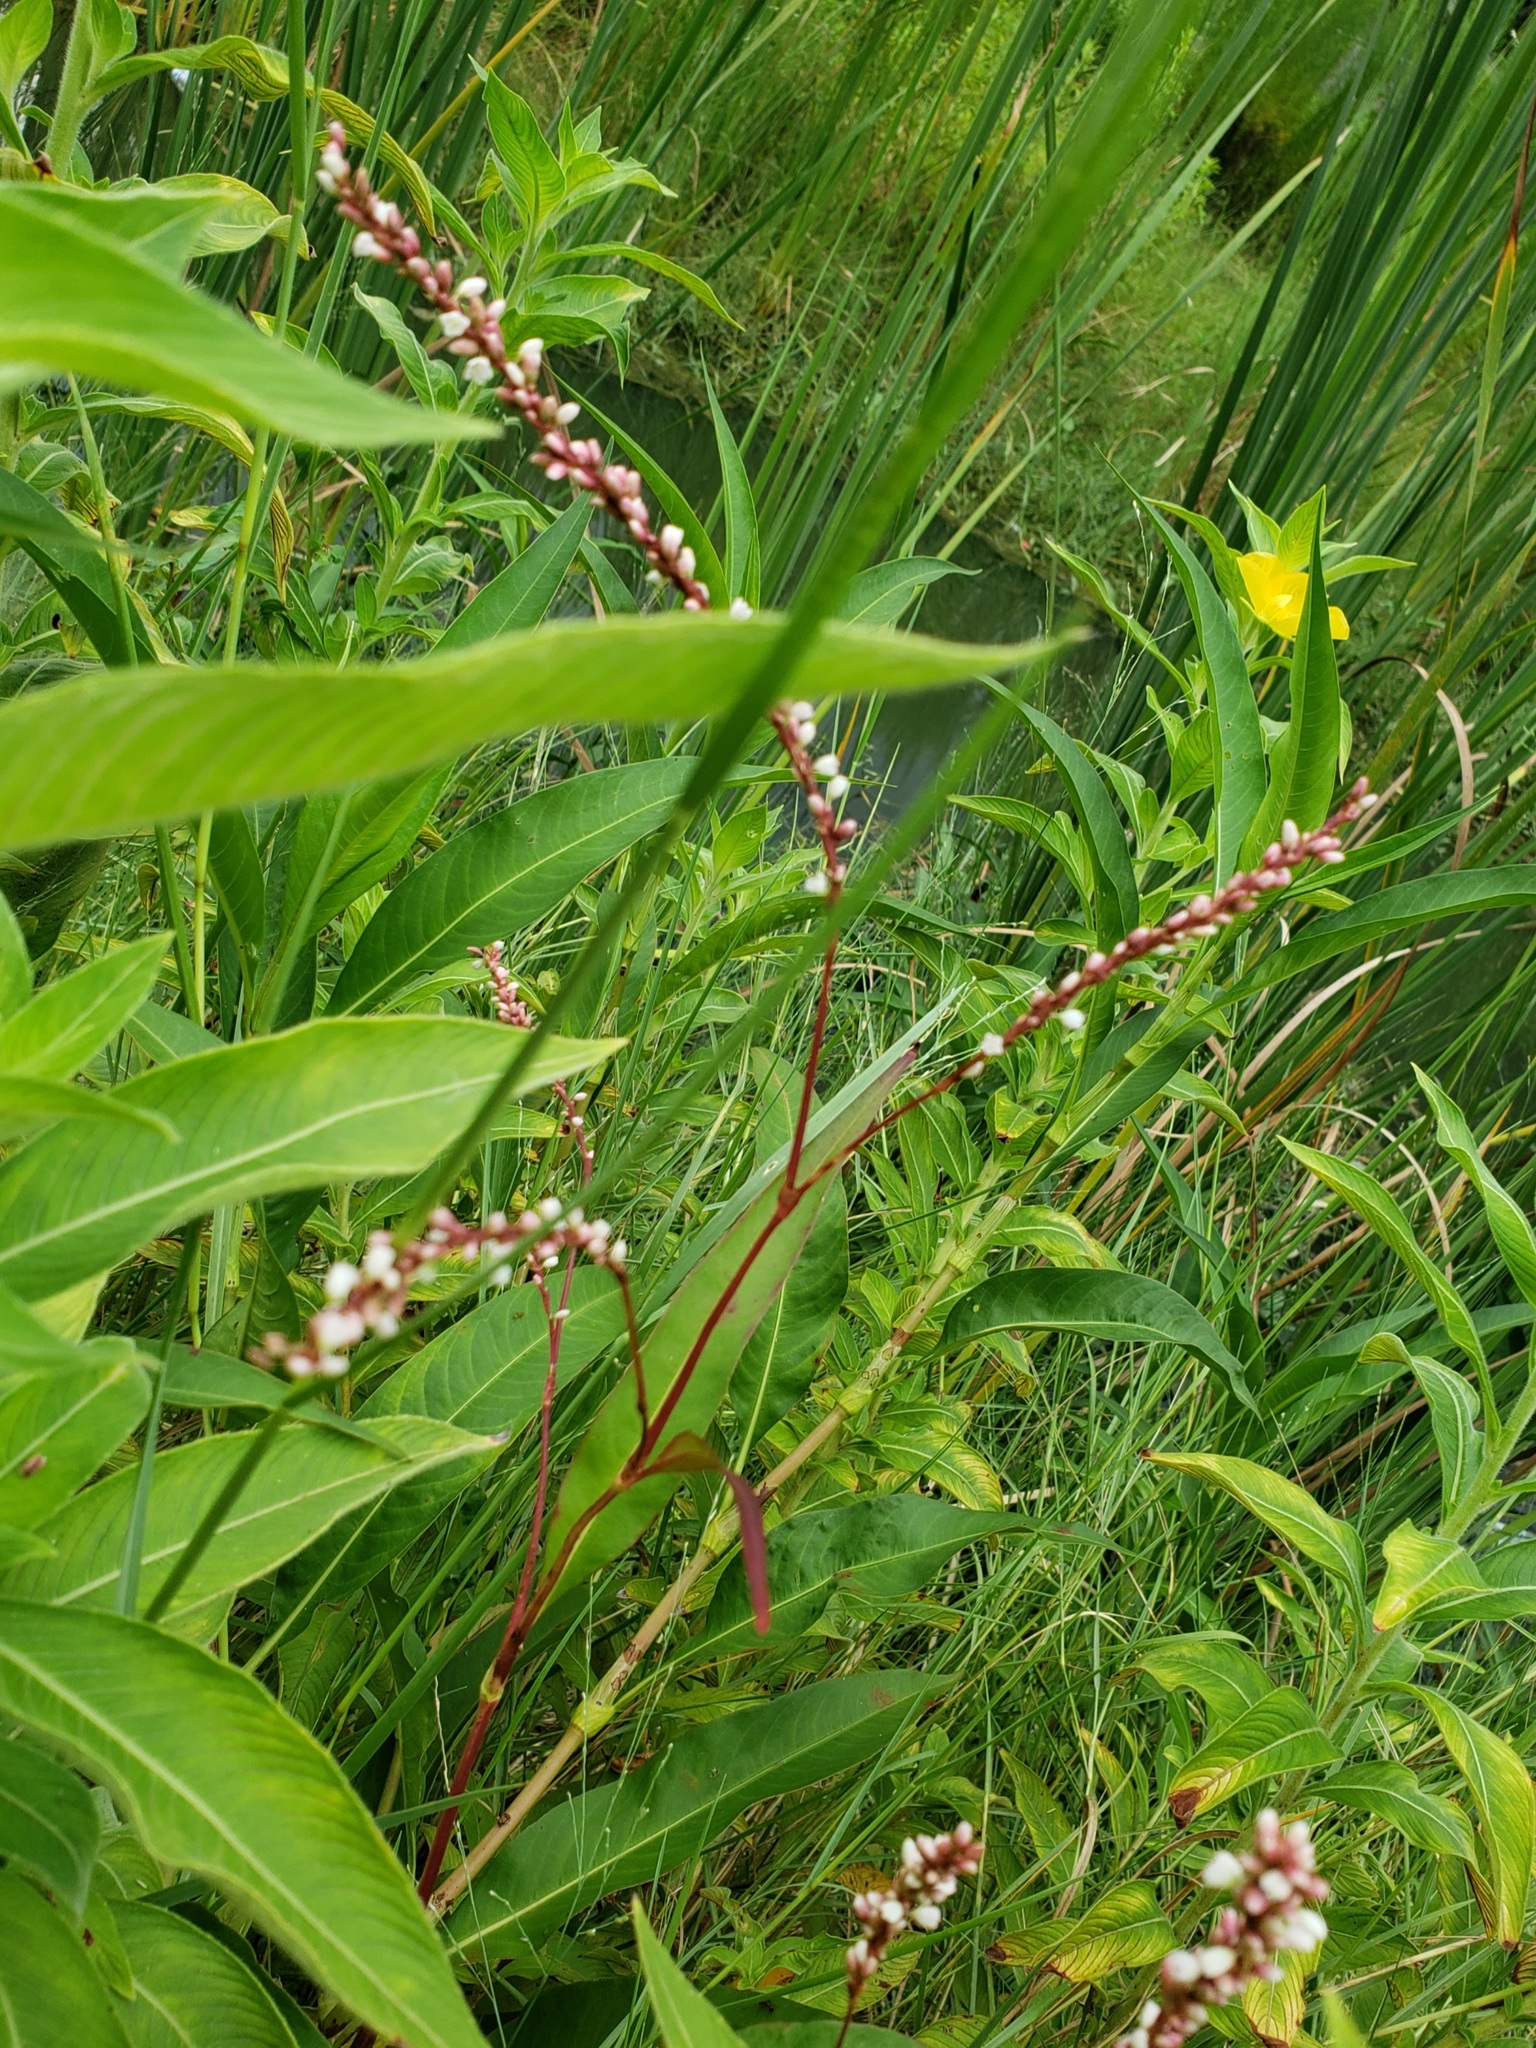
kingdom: Plantae
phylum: Tracheophyta
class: Magnoliopsida
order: Caryophyllales
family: Polygonaceae
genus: Persicaria
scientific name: Persicaria hydropiperoides
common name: Swamp smartweed
